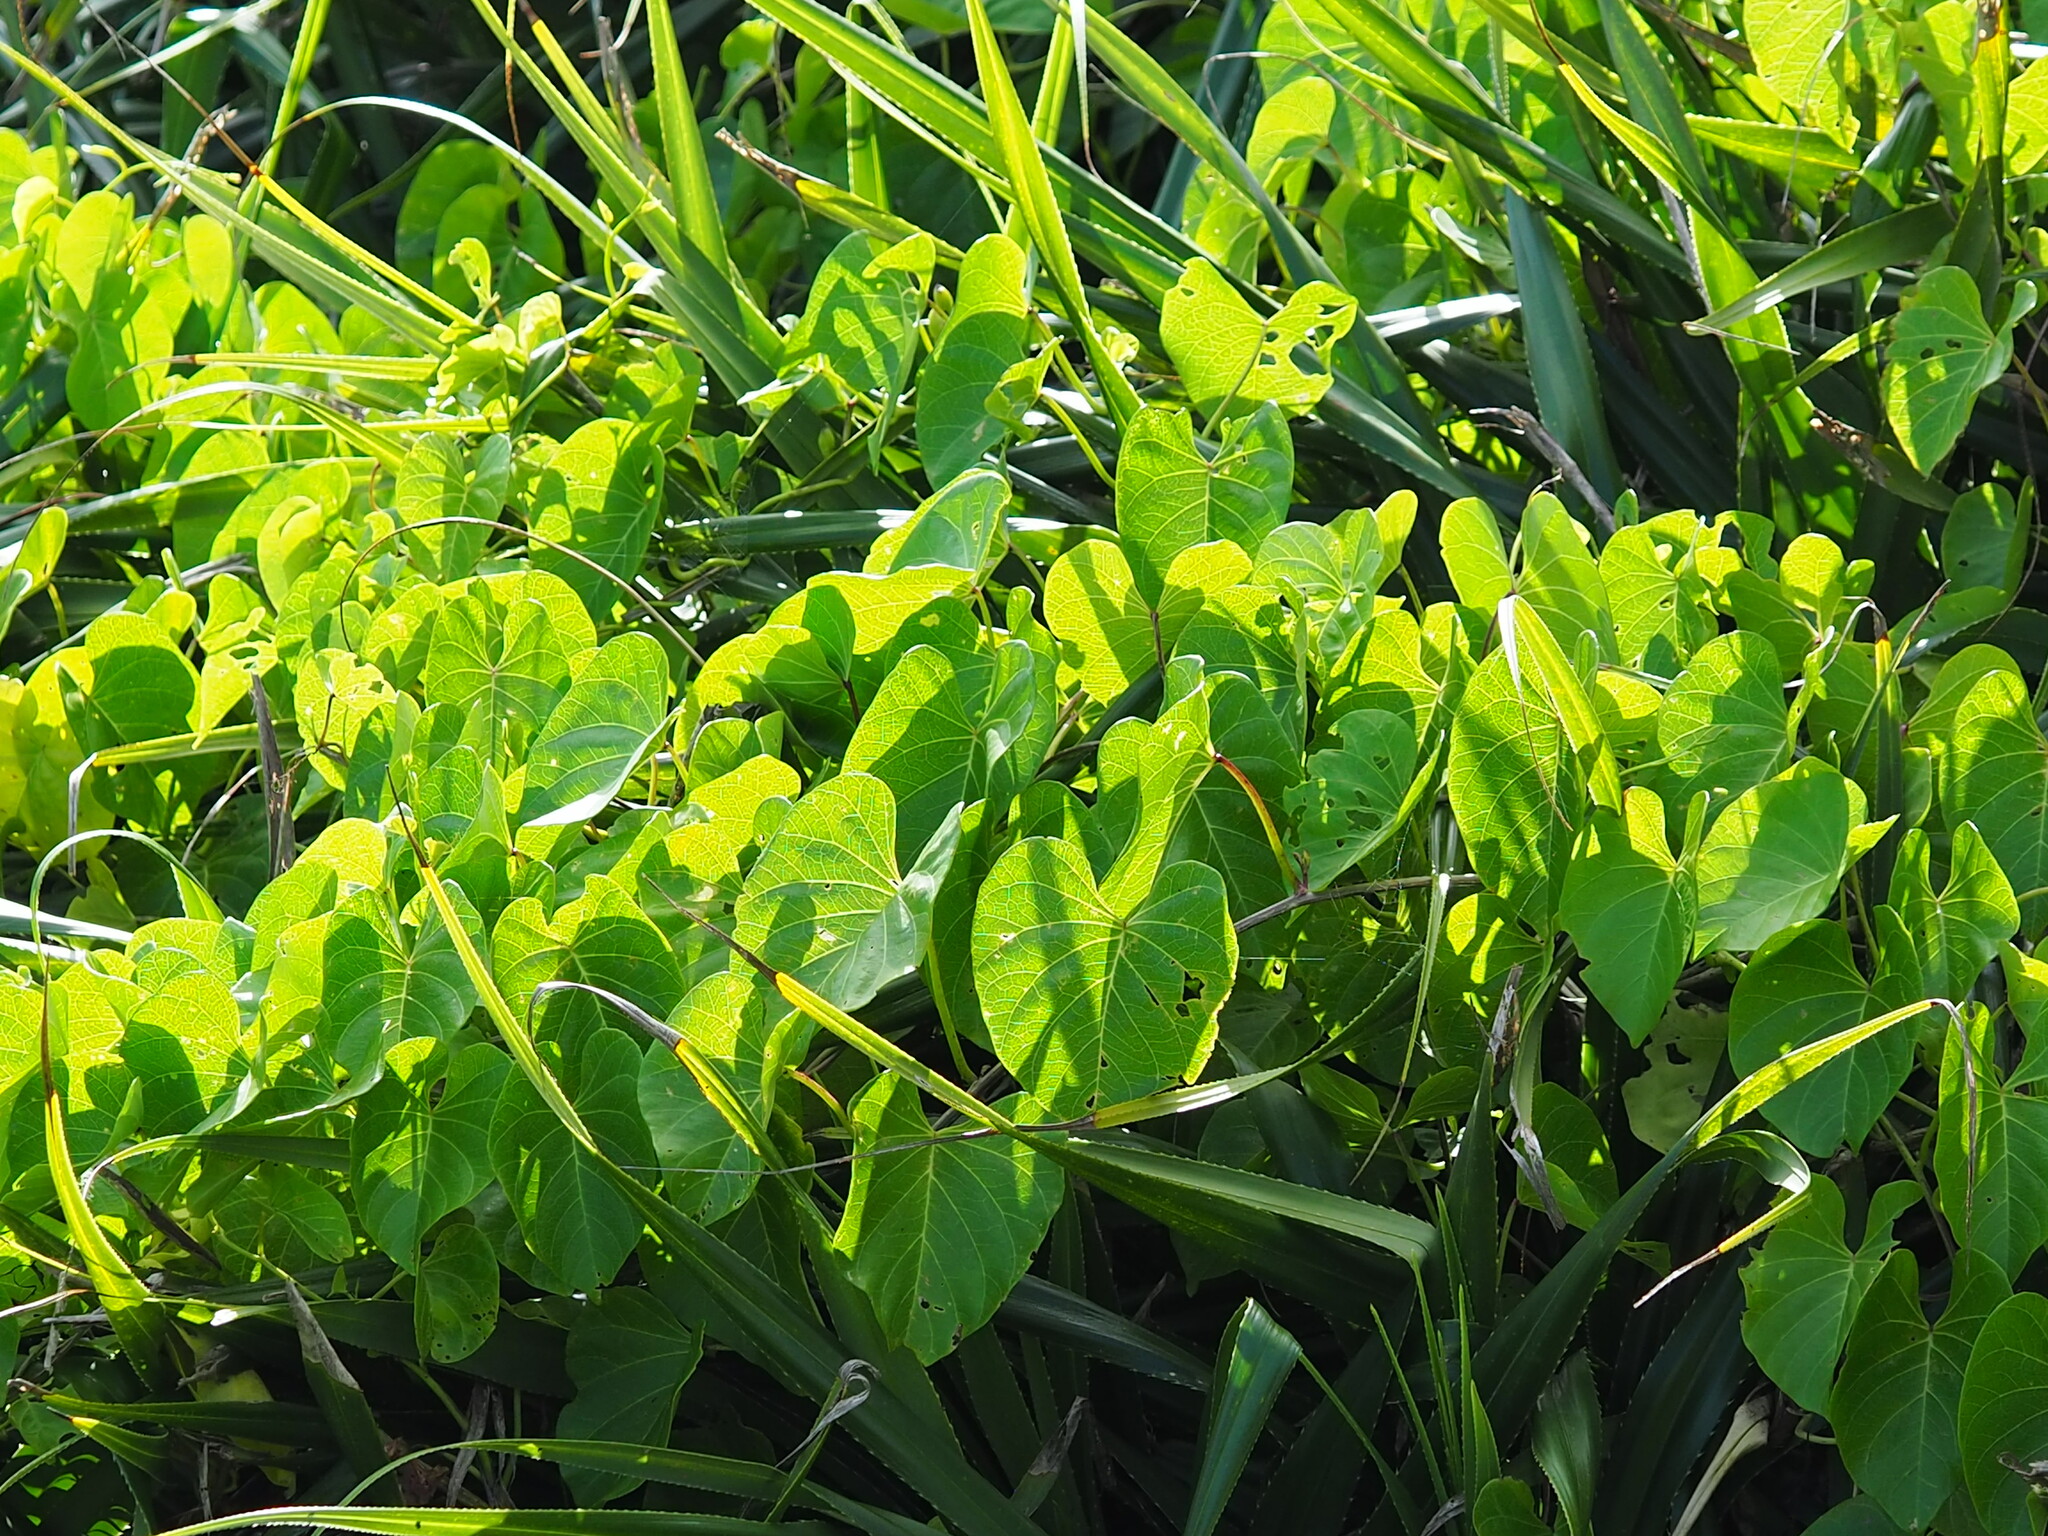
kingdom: Plantae
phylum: Tracheophyta
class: Magnoliopsida
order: Solanales
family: Convolvulaceae
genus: Ipomoea
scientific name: Ipomoea violacea
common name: Beach moonflower
